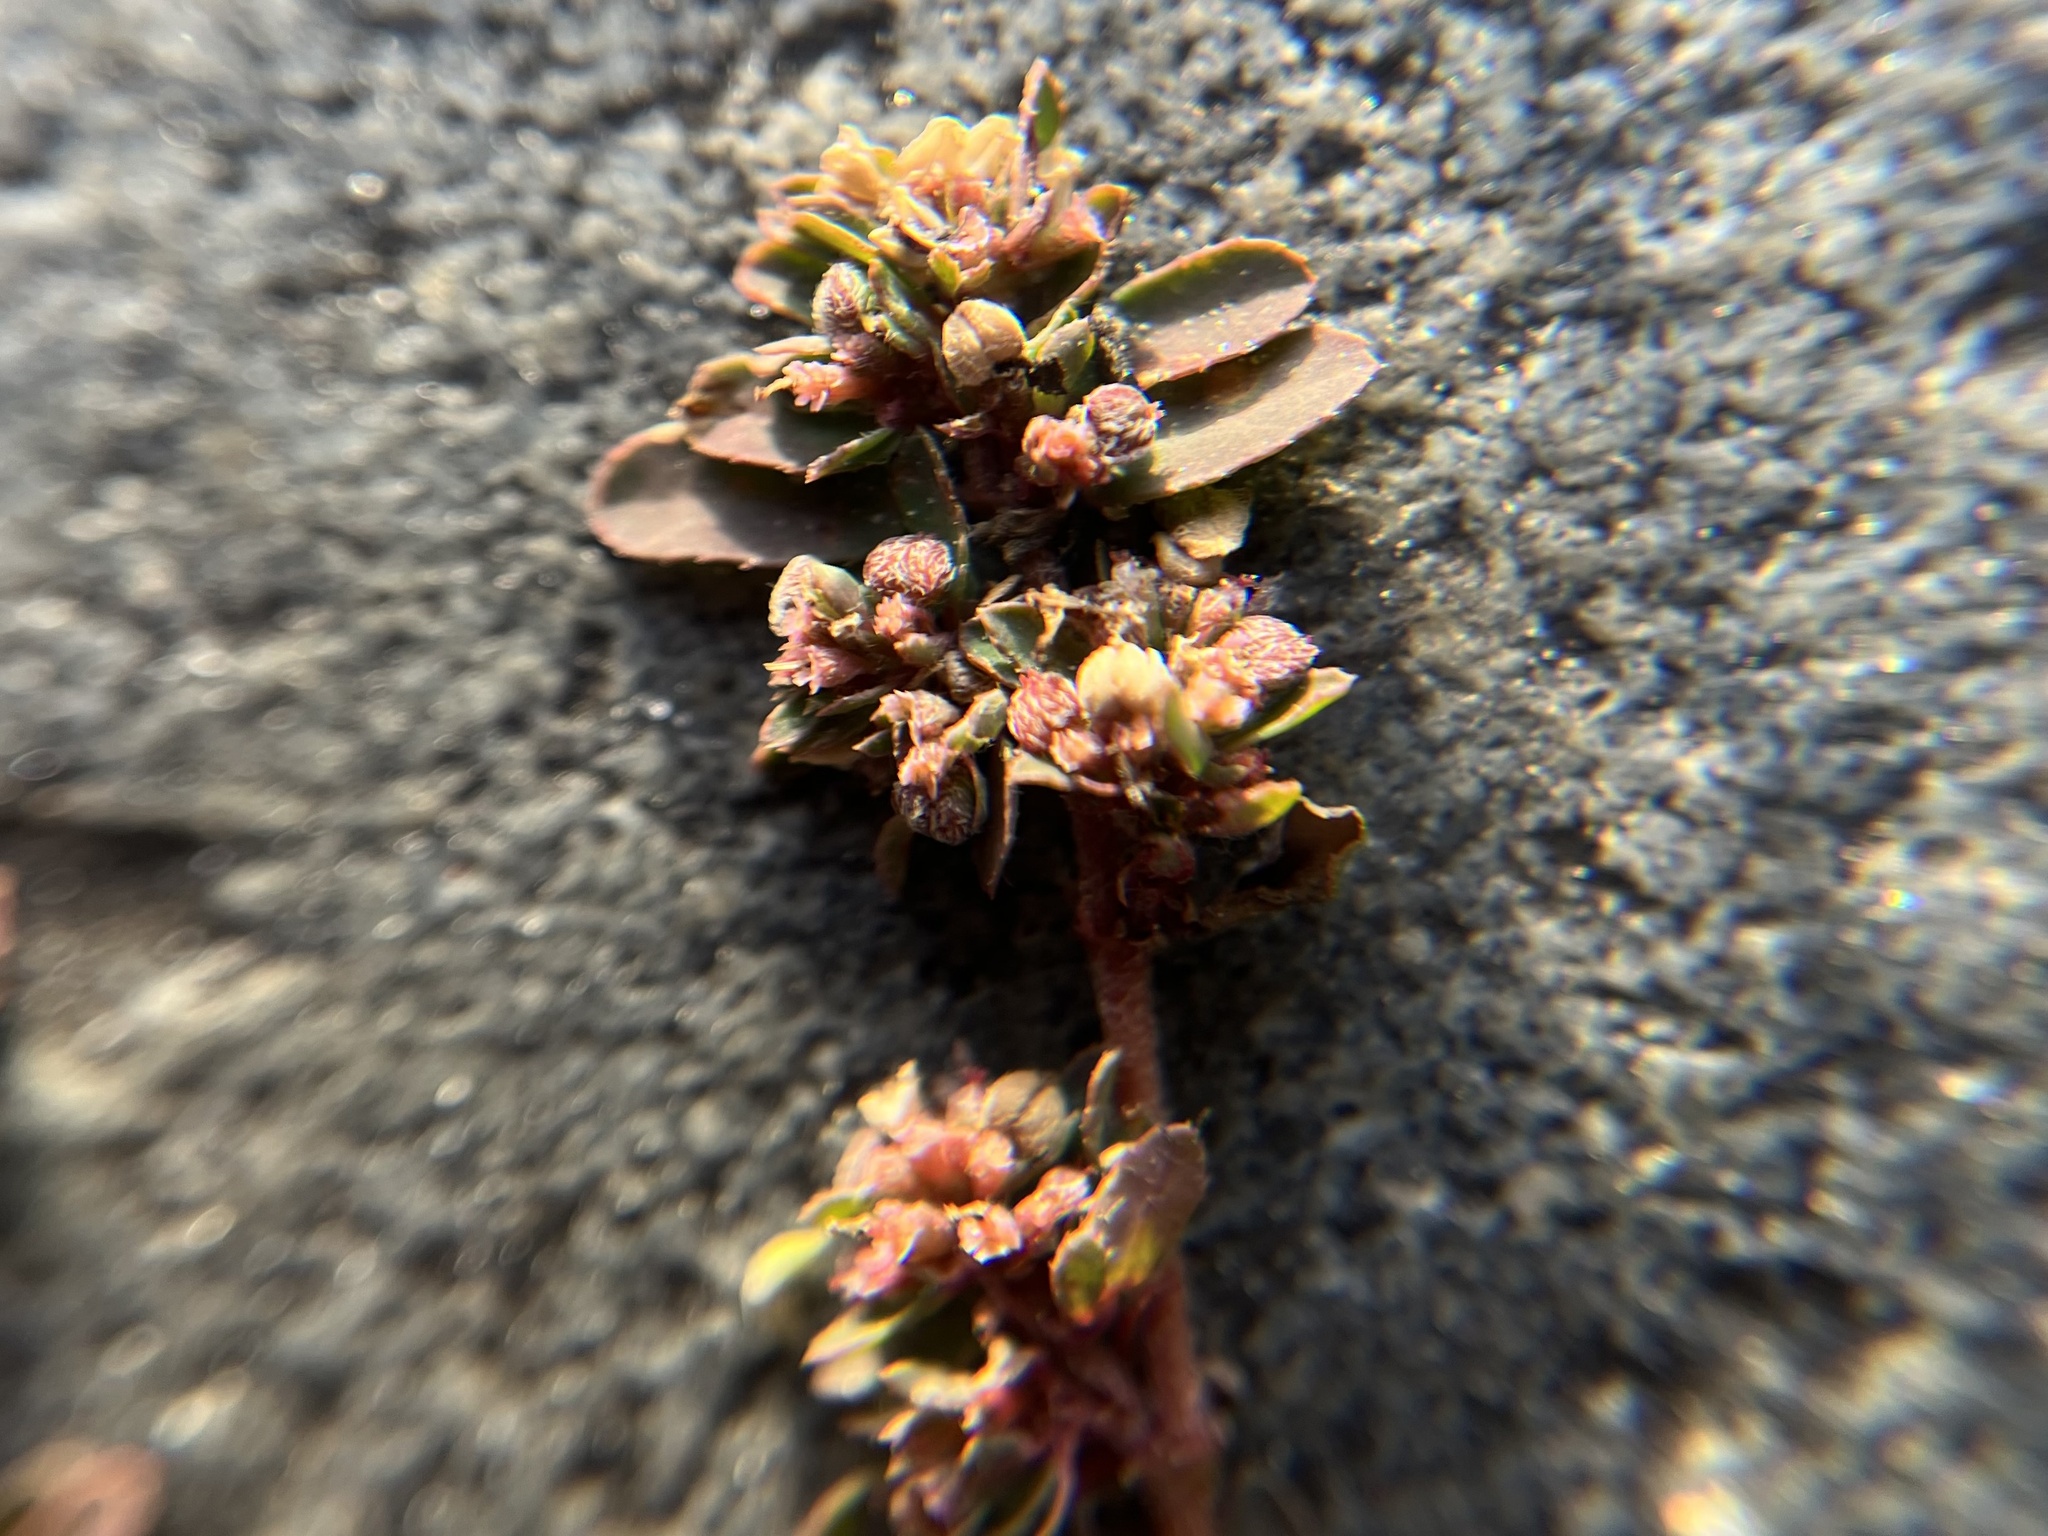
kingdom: Plantae
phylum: Tracheophyta
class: Magnoliopsida
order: Malpighiales
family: Euphorbiaceae
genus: Euphorbia
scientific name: Euphorbia maculata
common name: Spotted spurge
